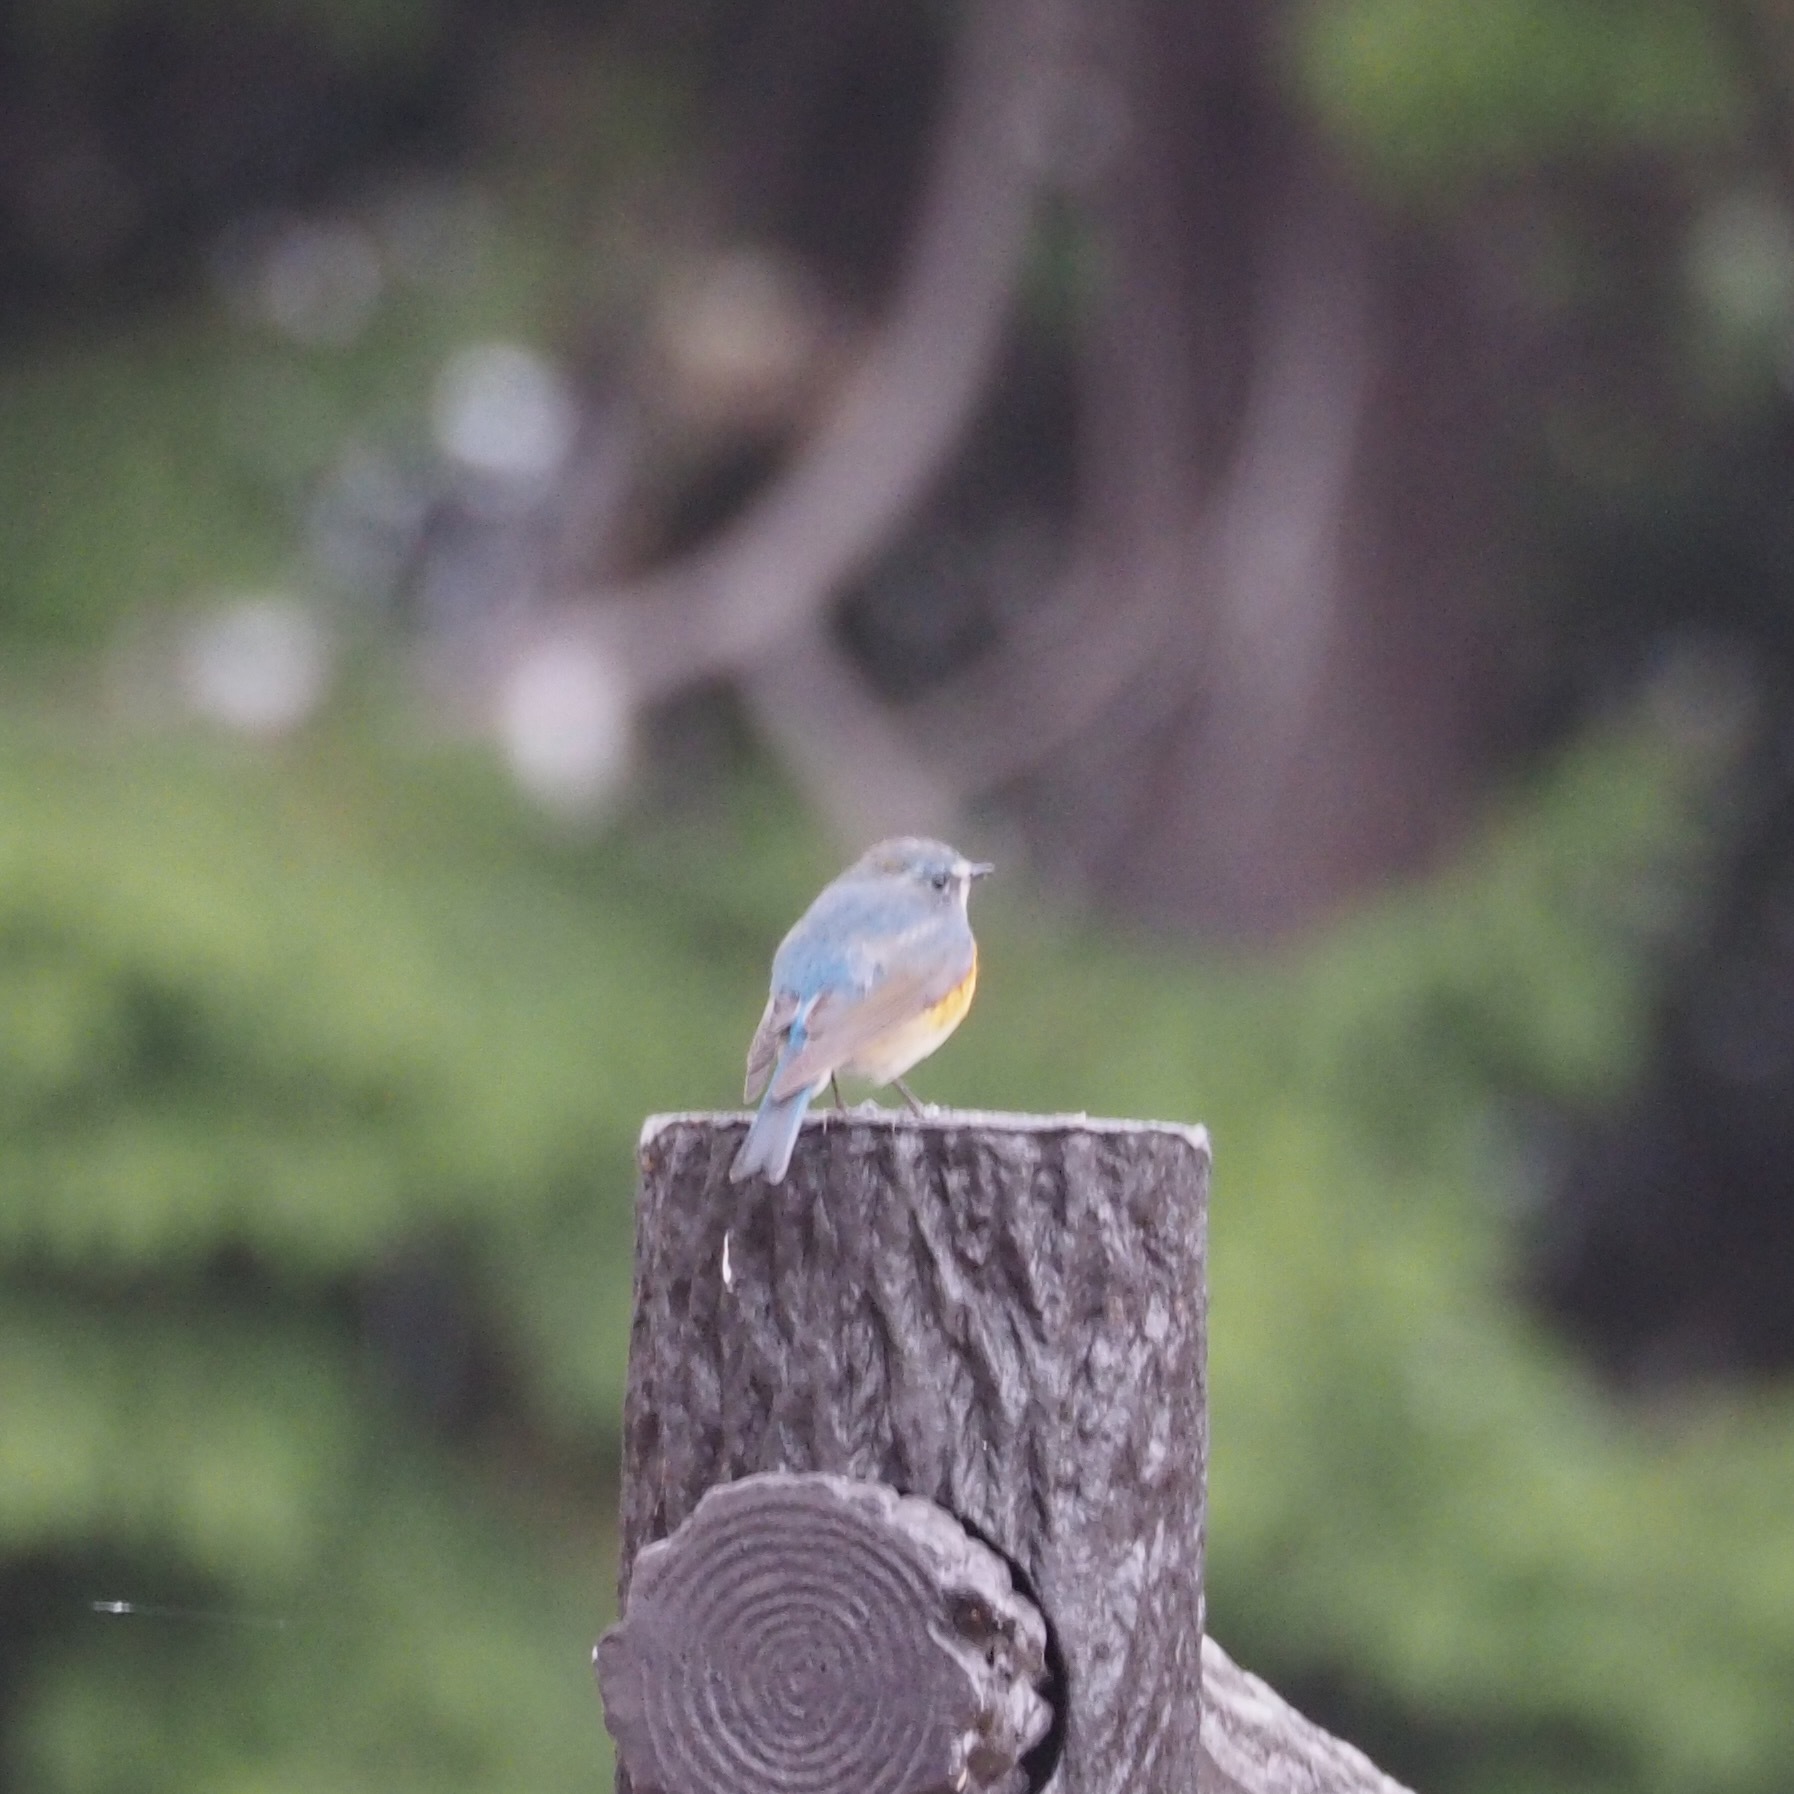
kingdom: Animalia
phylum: Chordata
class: Aves
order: Passeriformes
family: Muscicapidae
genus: Tarsiger
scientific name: Tarsiger cyanurus
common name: Red-flanked bluetail
